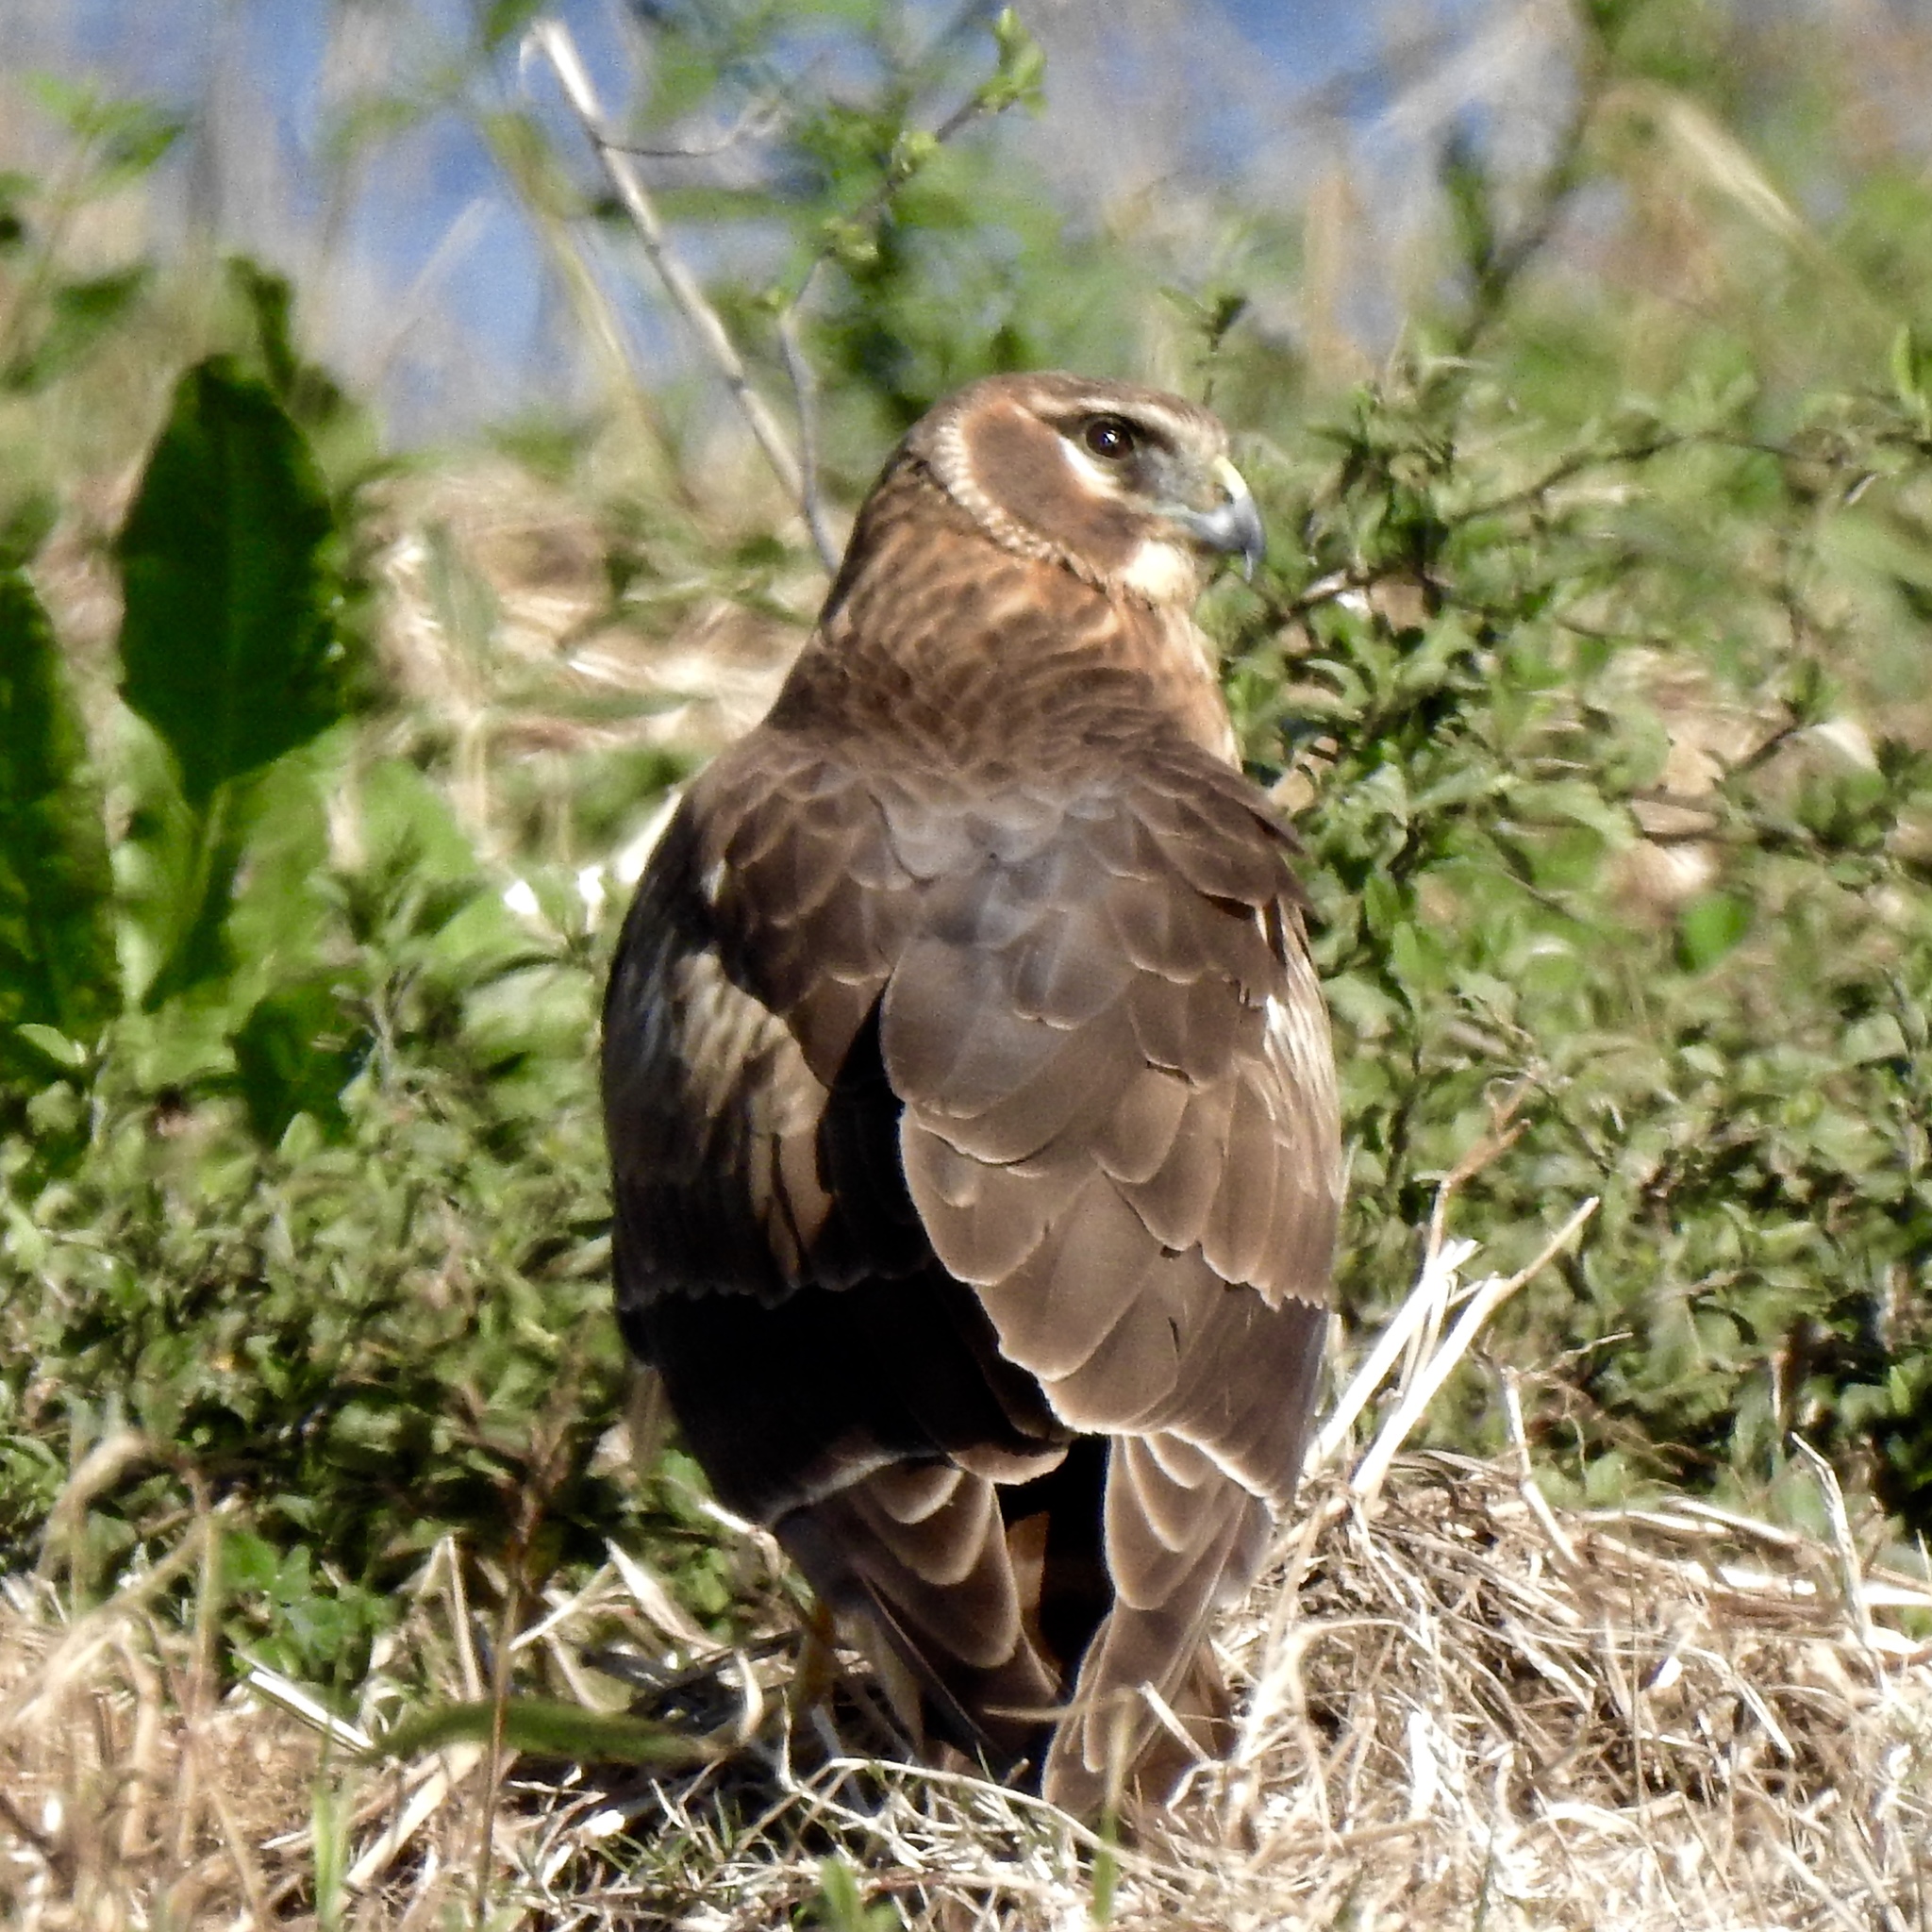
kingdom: Animalia
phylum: Chordata
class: Aves
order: Accipitriformes
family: Accipitridae
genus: Circus
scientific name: Circus cyaneus
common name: Hen harrier
